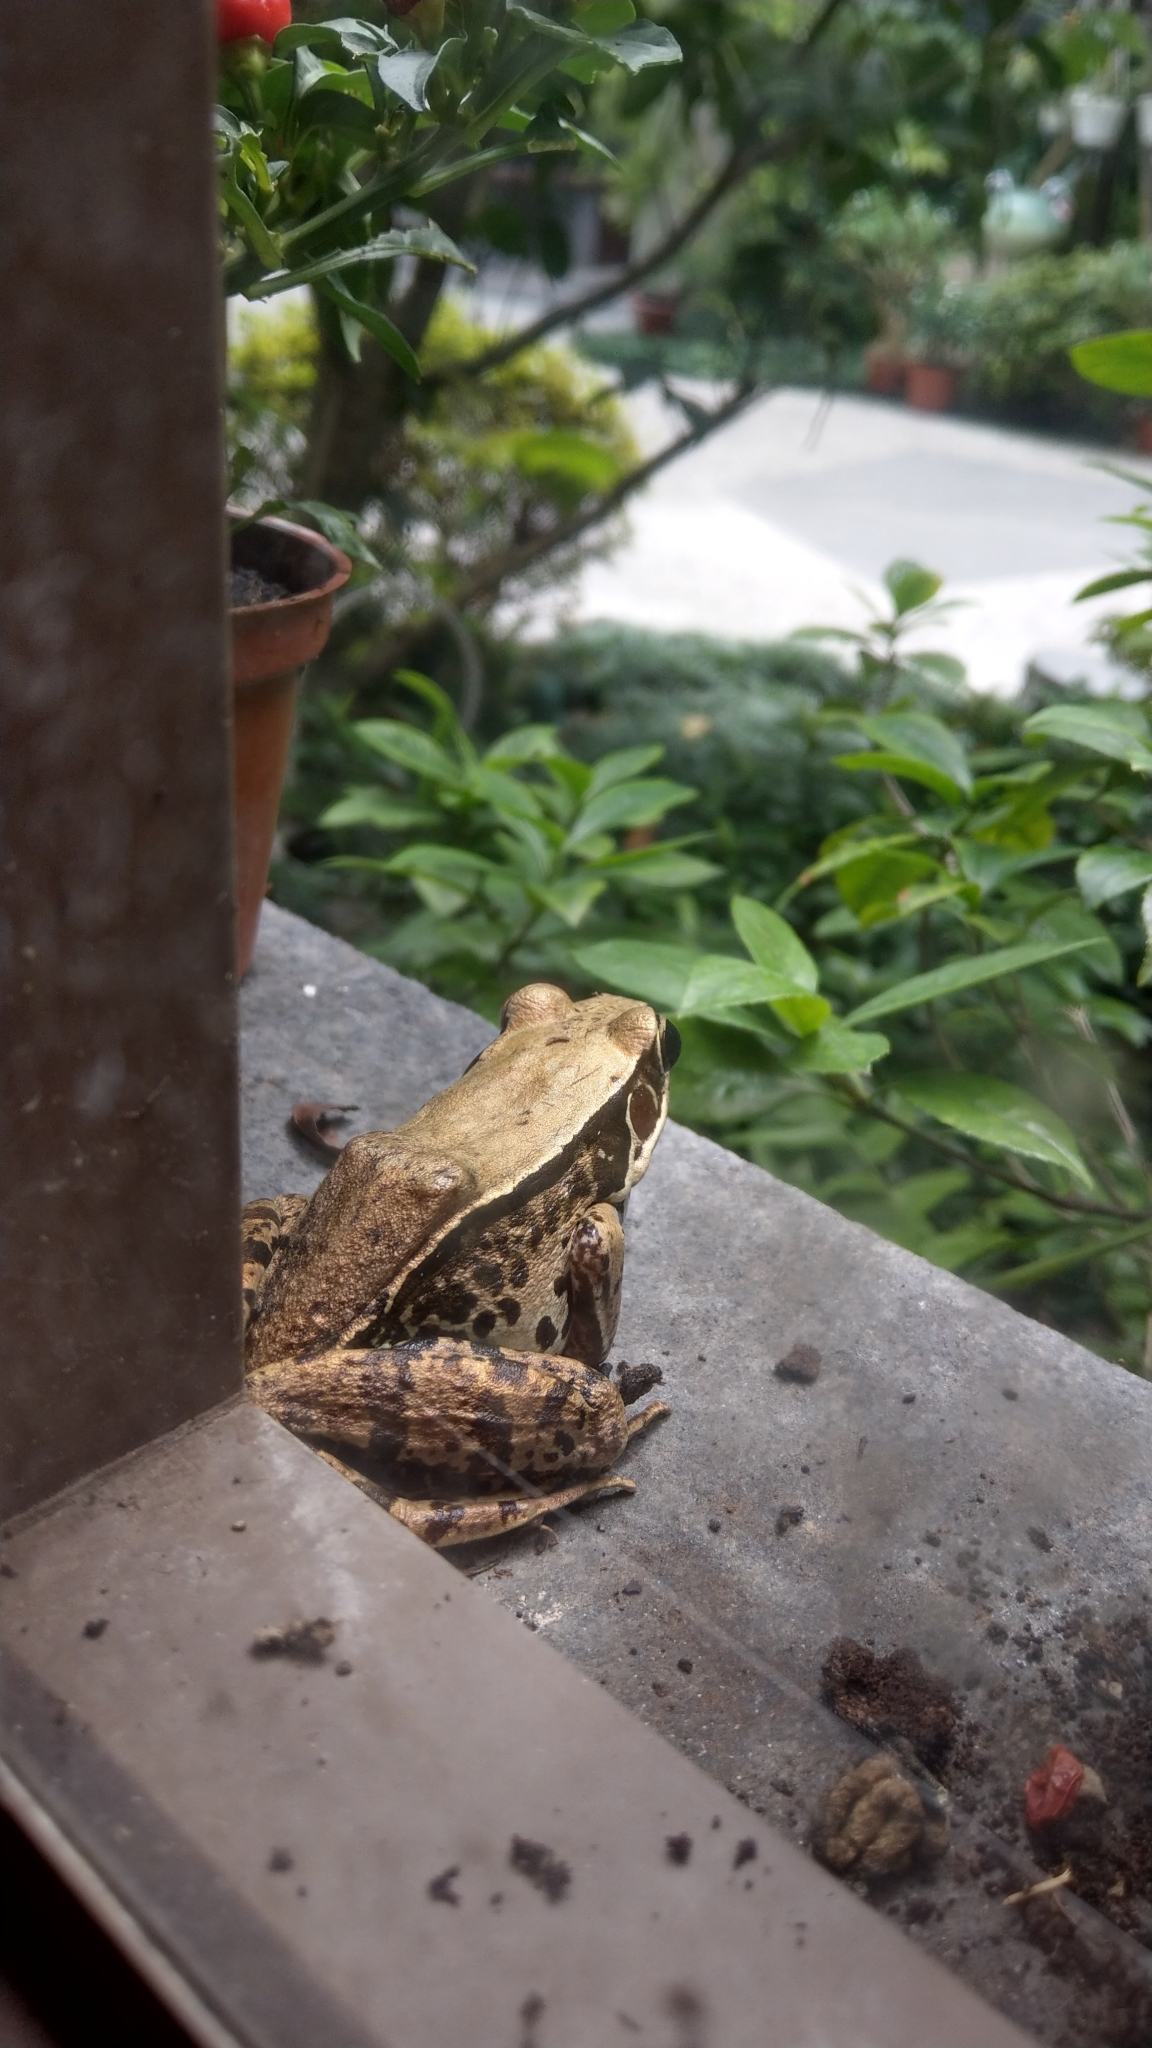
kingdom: Animalia
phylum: Chordata
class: Amphibia
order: Anura
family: Ranidae
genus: Sylvirana
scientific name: Sylvirana guentheri
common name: Guenther's amoy frog
